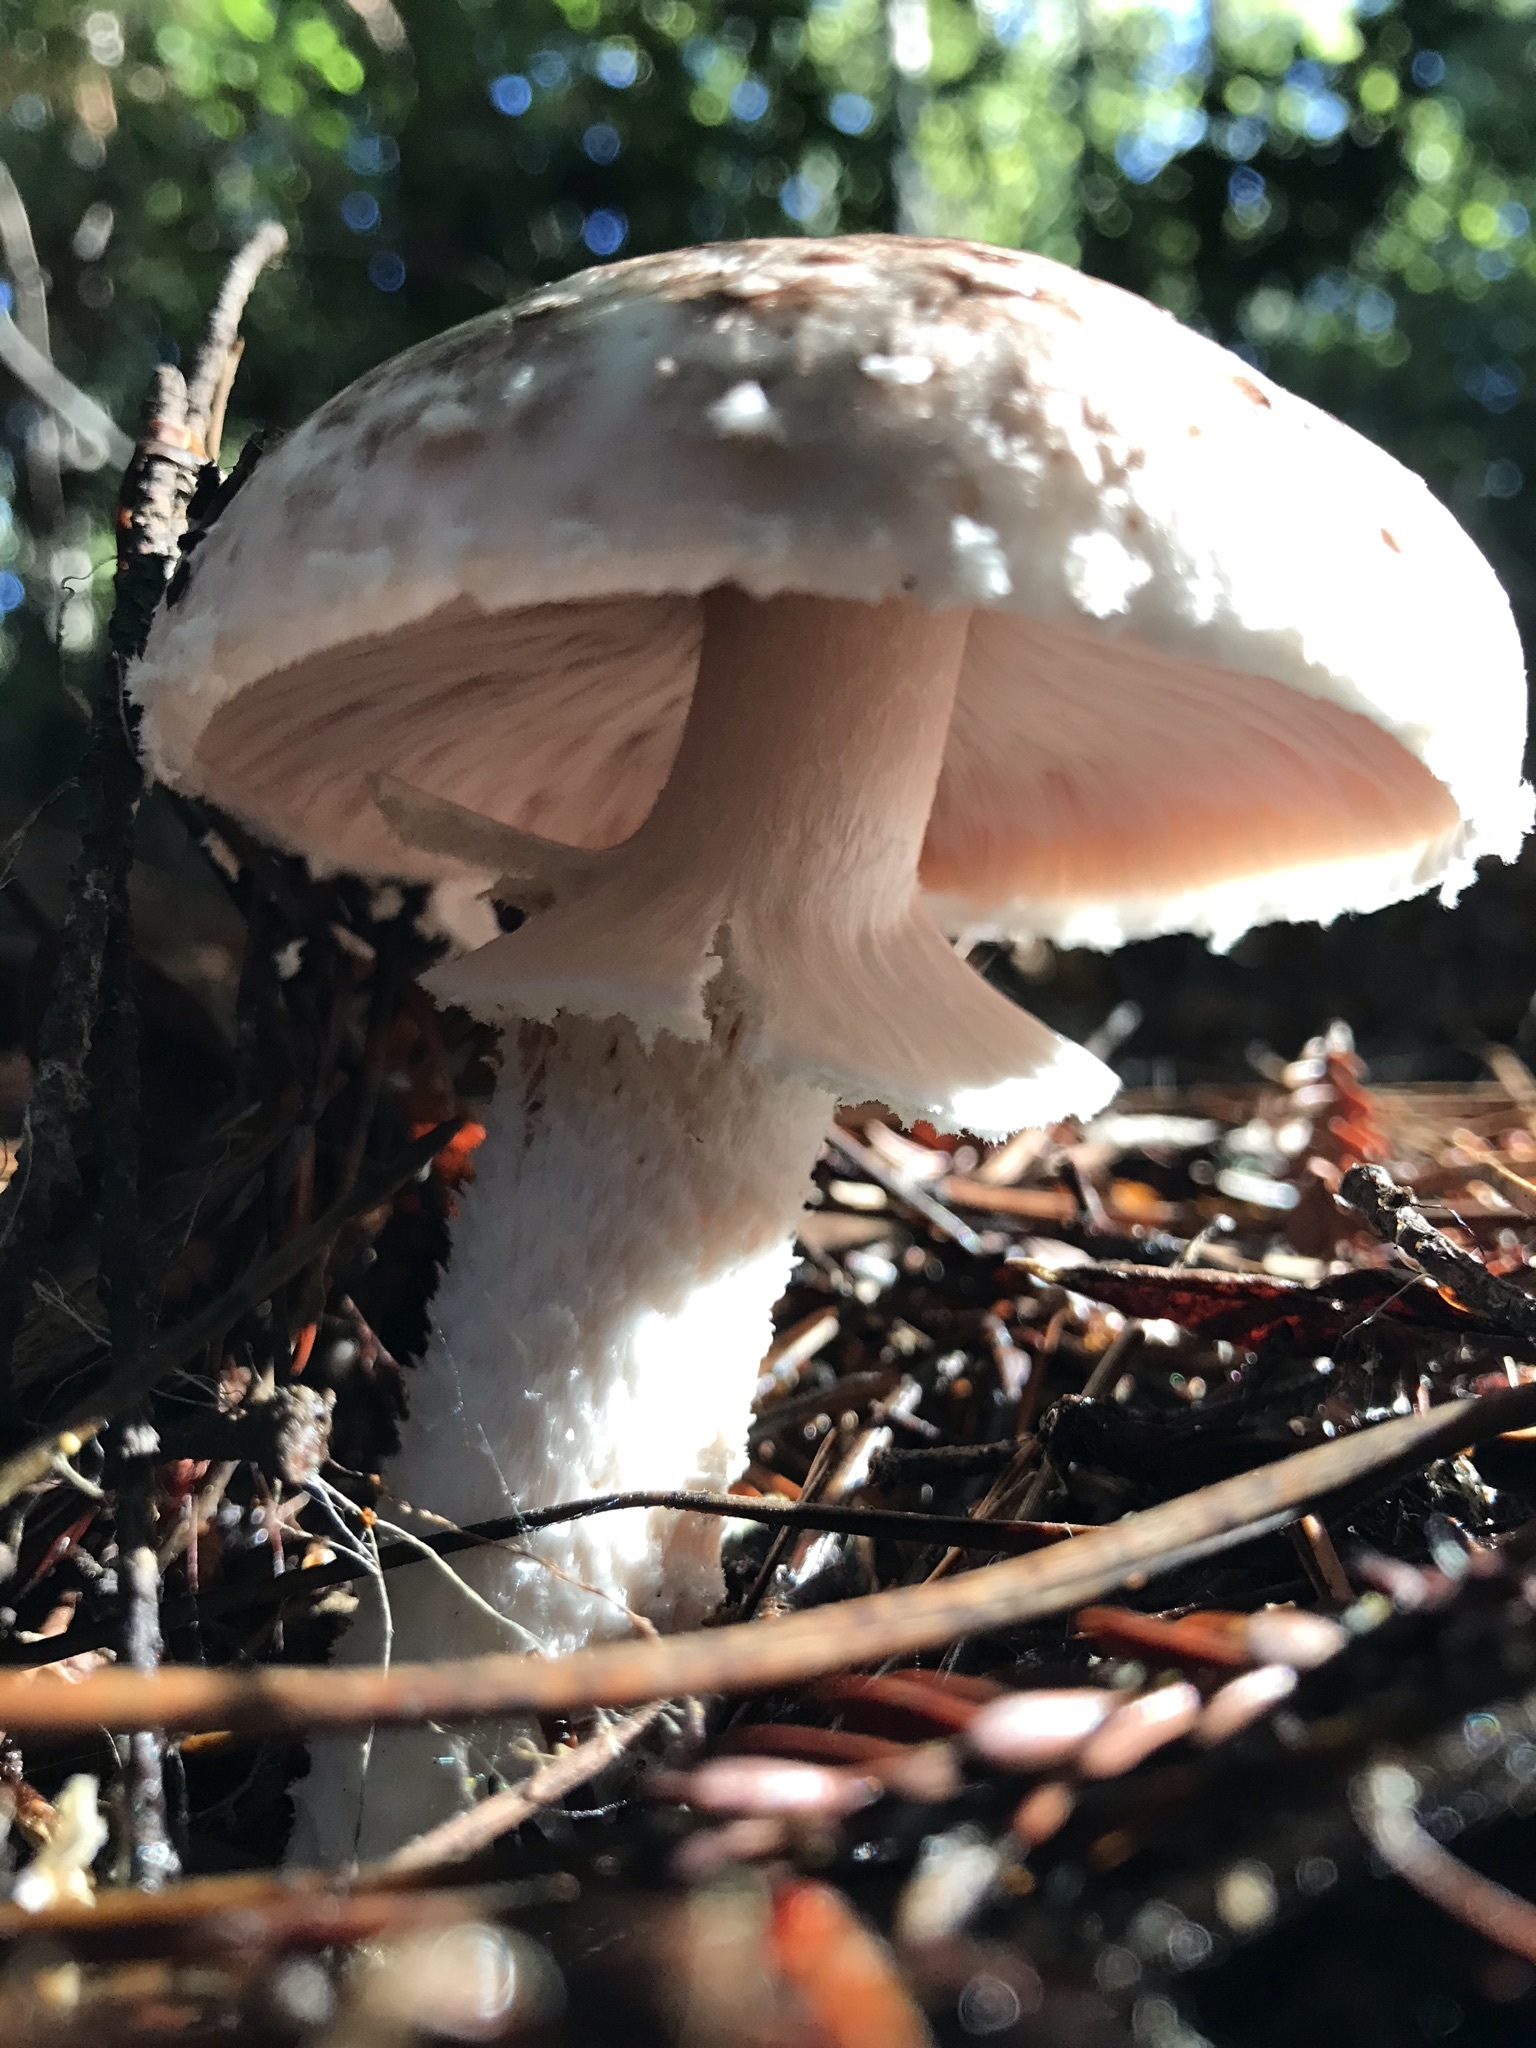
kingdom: Fungi
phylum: Basidiomycota
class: Agaricomycetes
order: Agaricales
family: Agaricaceae
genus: Agaricus
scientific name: Agaricus subrutilescens
